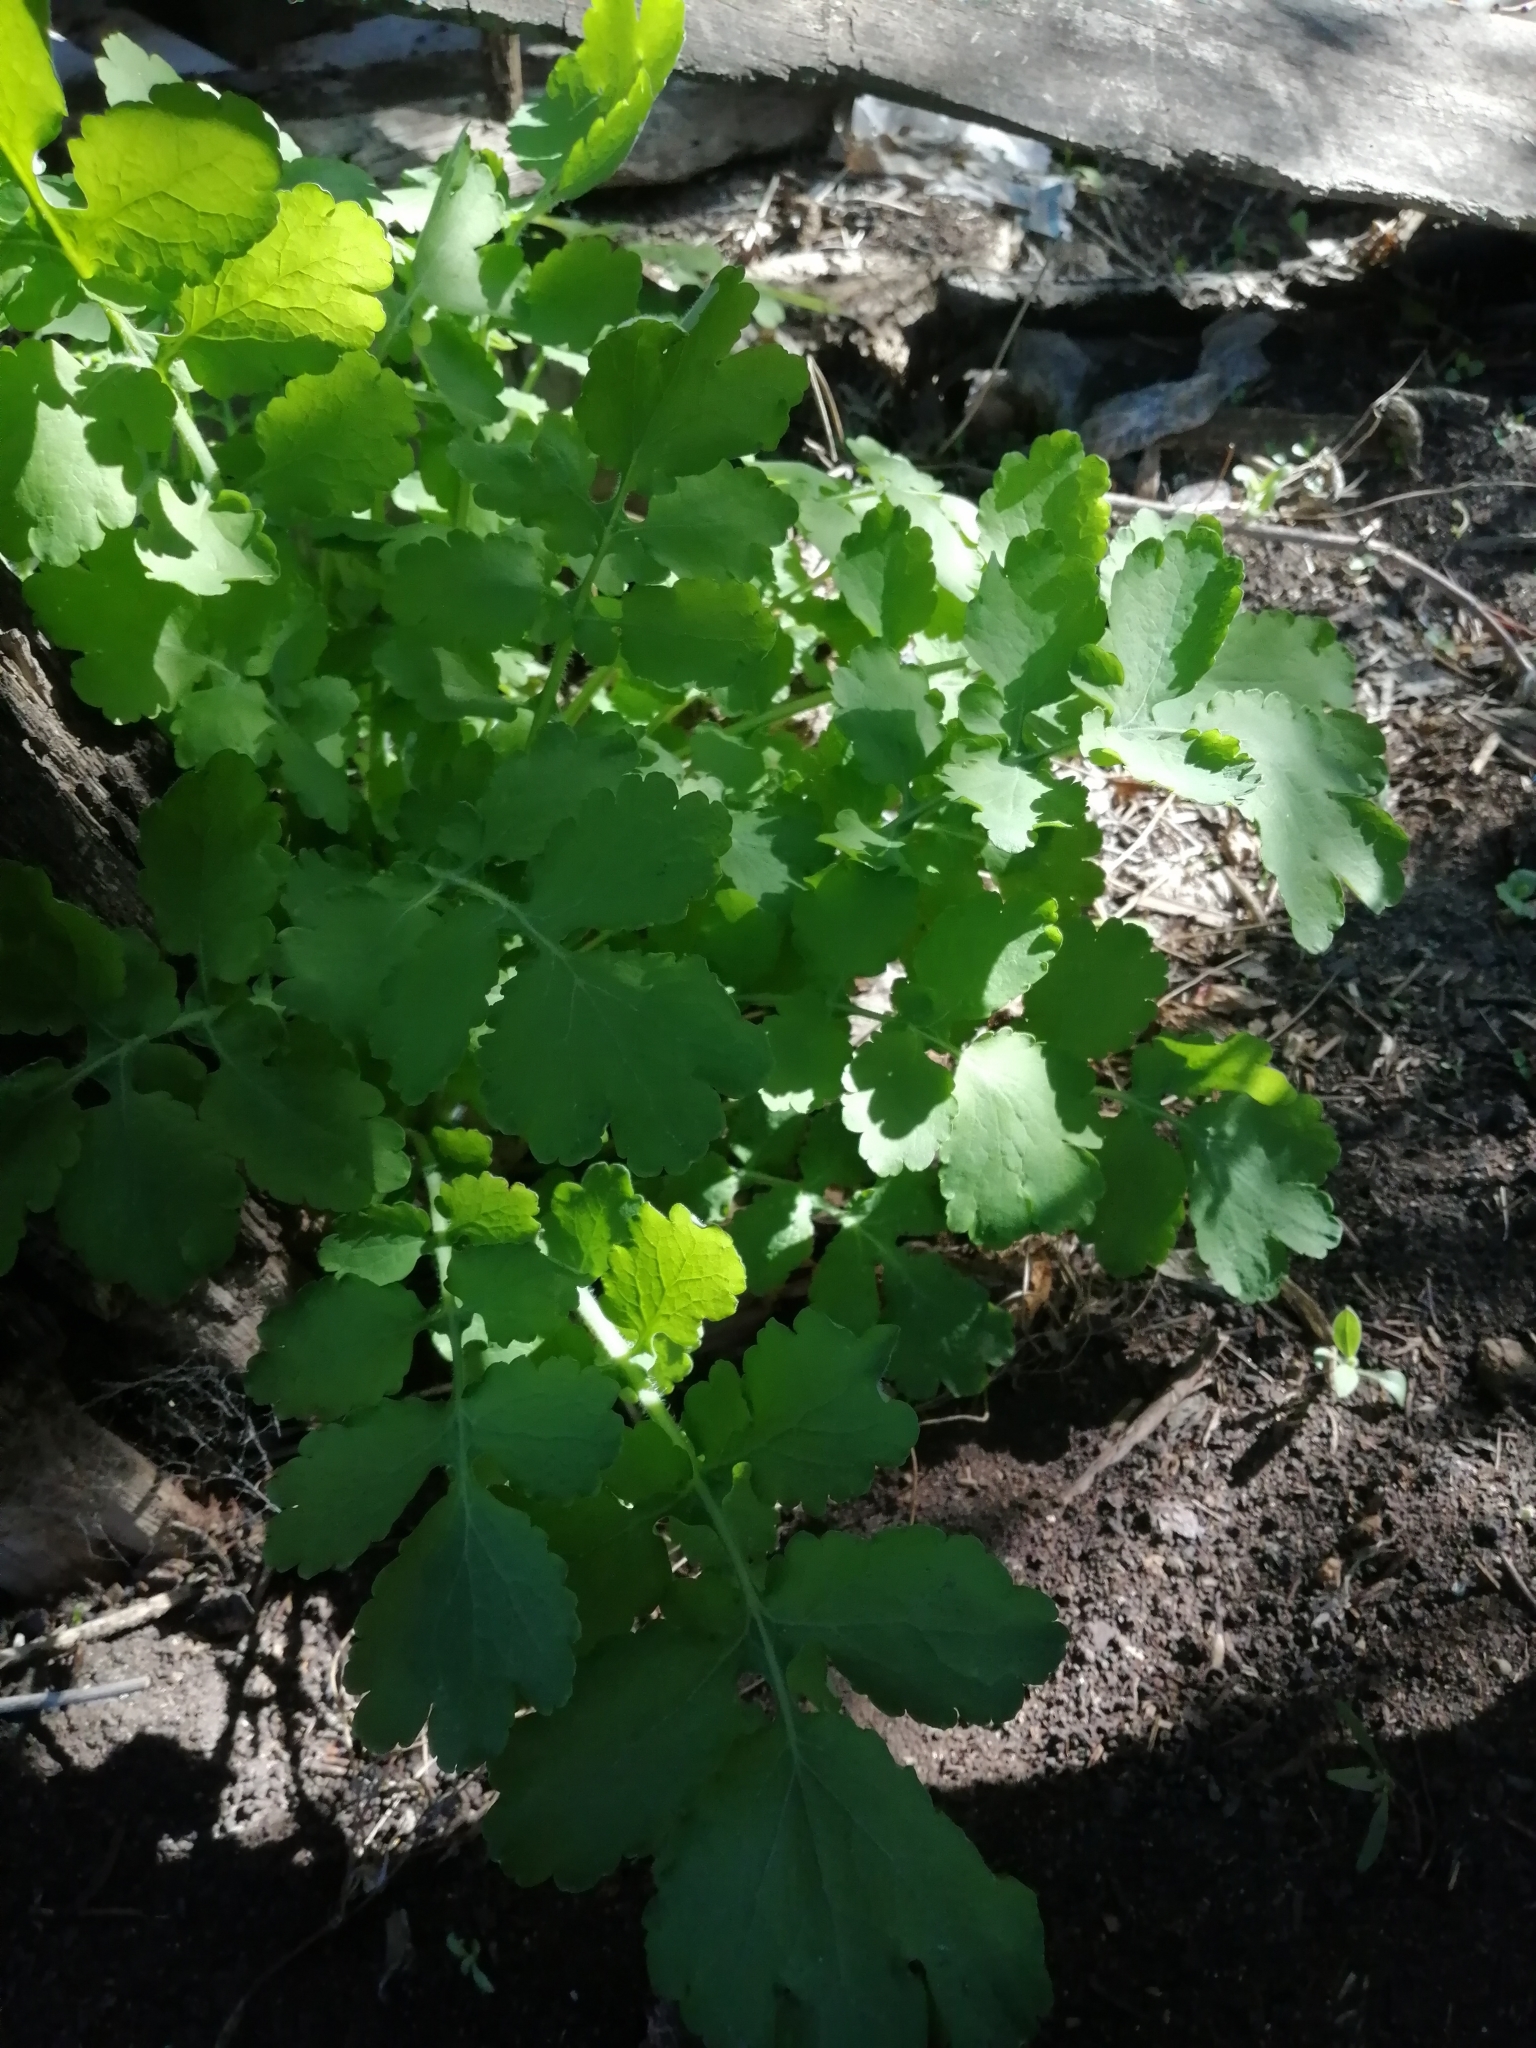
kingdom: Plantae
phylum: Tracheophyta
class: Magnoliopsida
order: Ranunculales
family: Papaveraceae
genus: Chelidonium
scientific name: Chelidonium majus
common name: Greater celandine
